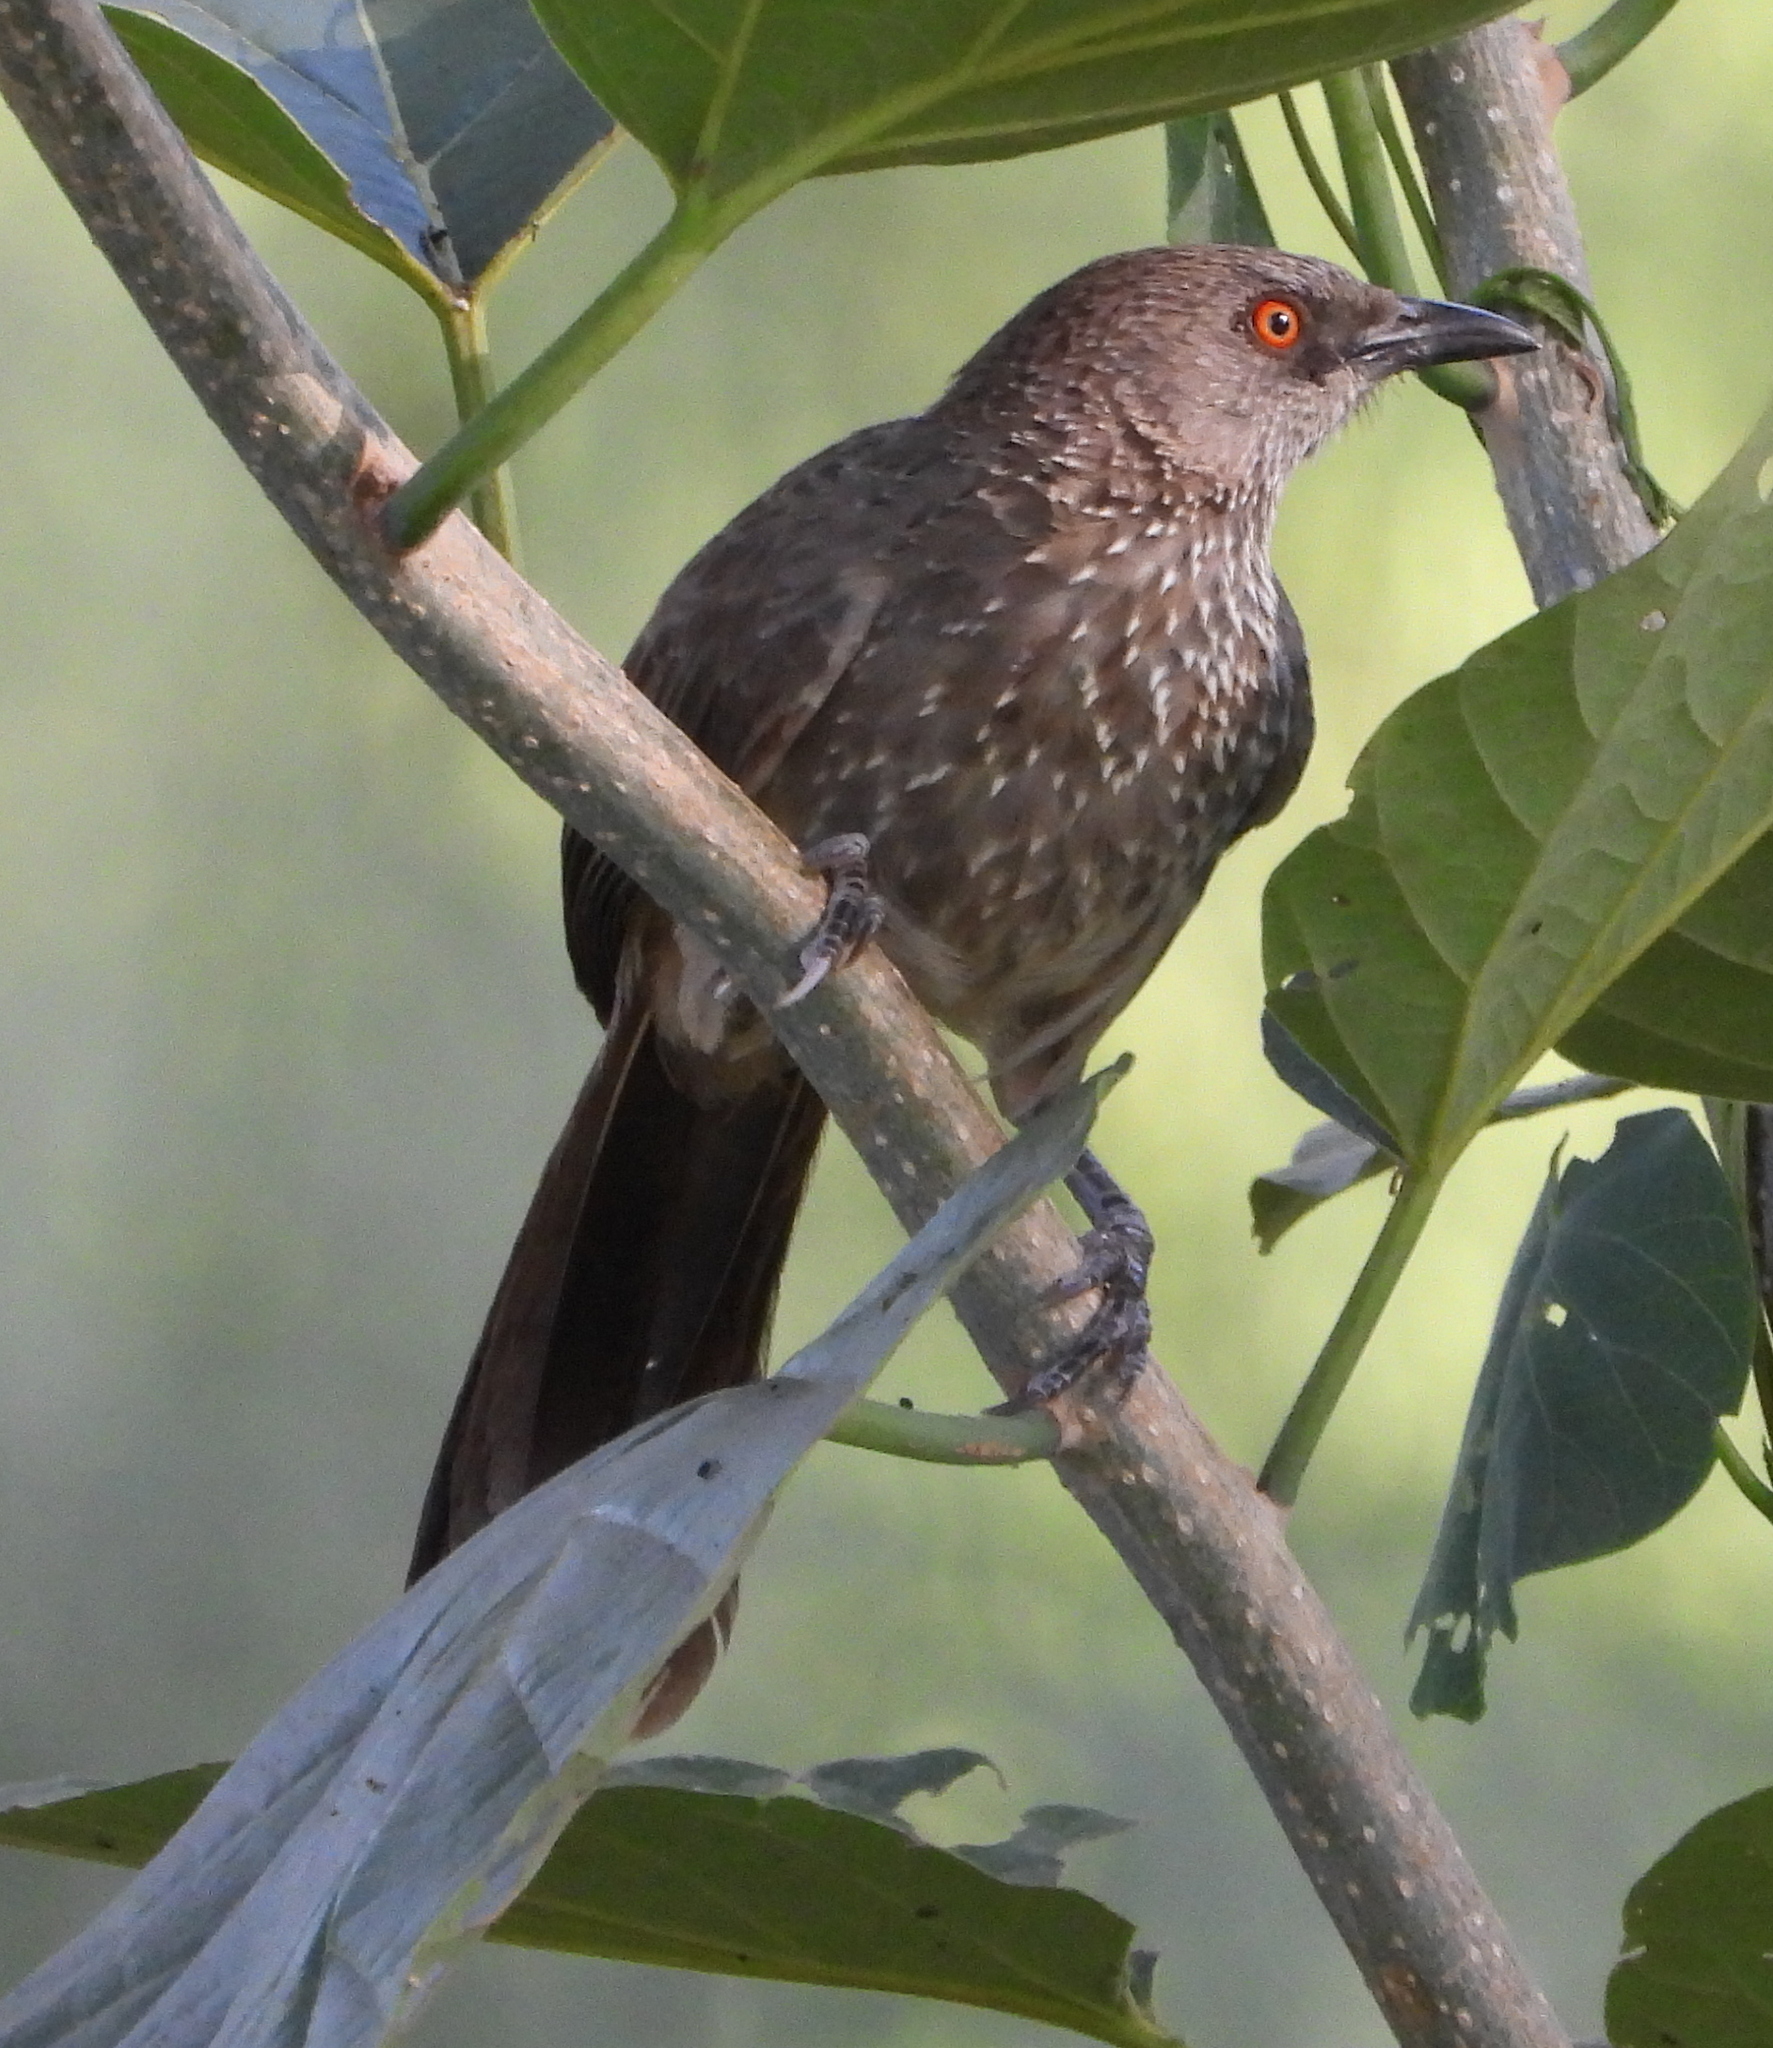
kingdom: Animalia
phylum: Chordata
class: Aves
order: Passeriformes
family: Leiothrichidae
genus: Turdoides
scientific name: Turdoides jardineii
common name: Arrow-marked babbler
